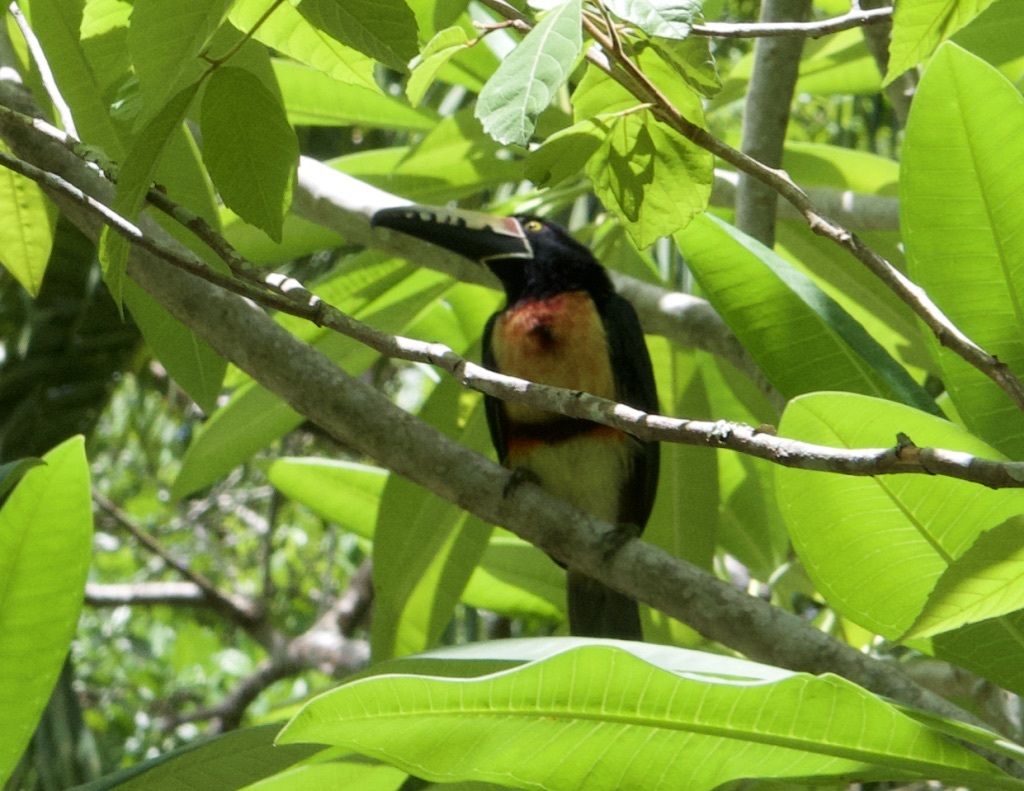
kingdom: Animalia
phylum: Chordata
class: Aves
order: Piciformes
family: Ramphastidae
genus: Pteroglossus
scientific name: Pteroglossus torquatus
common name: Collared aracari
